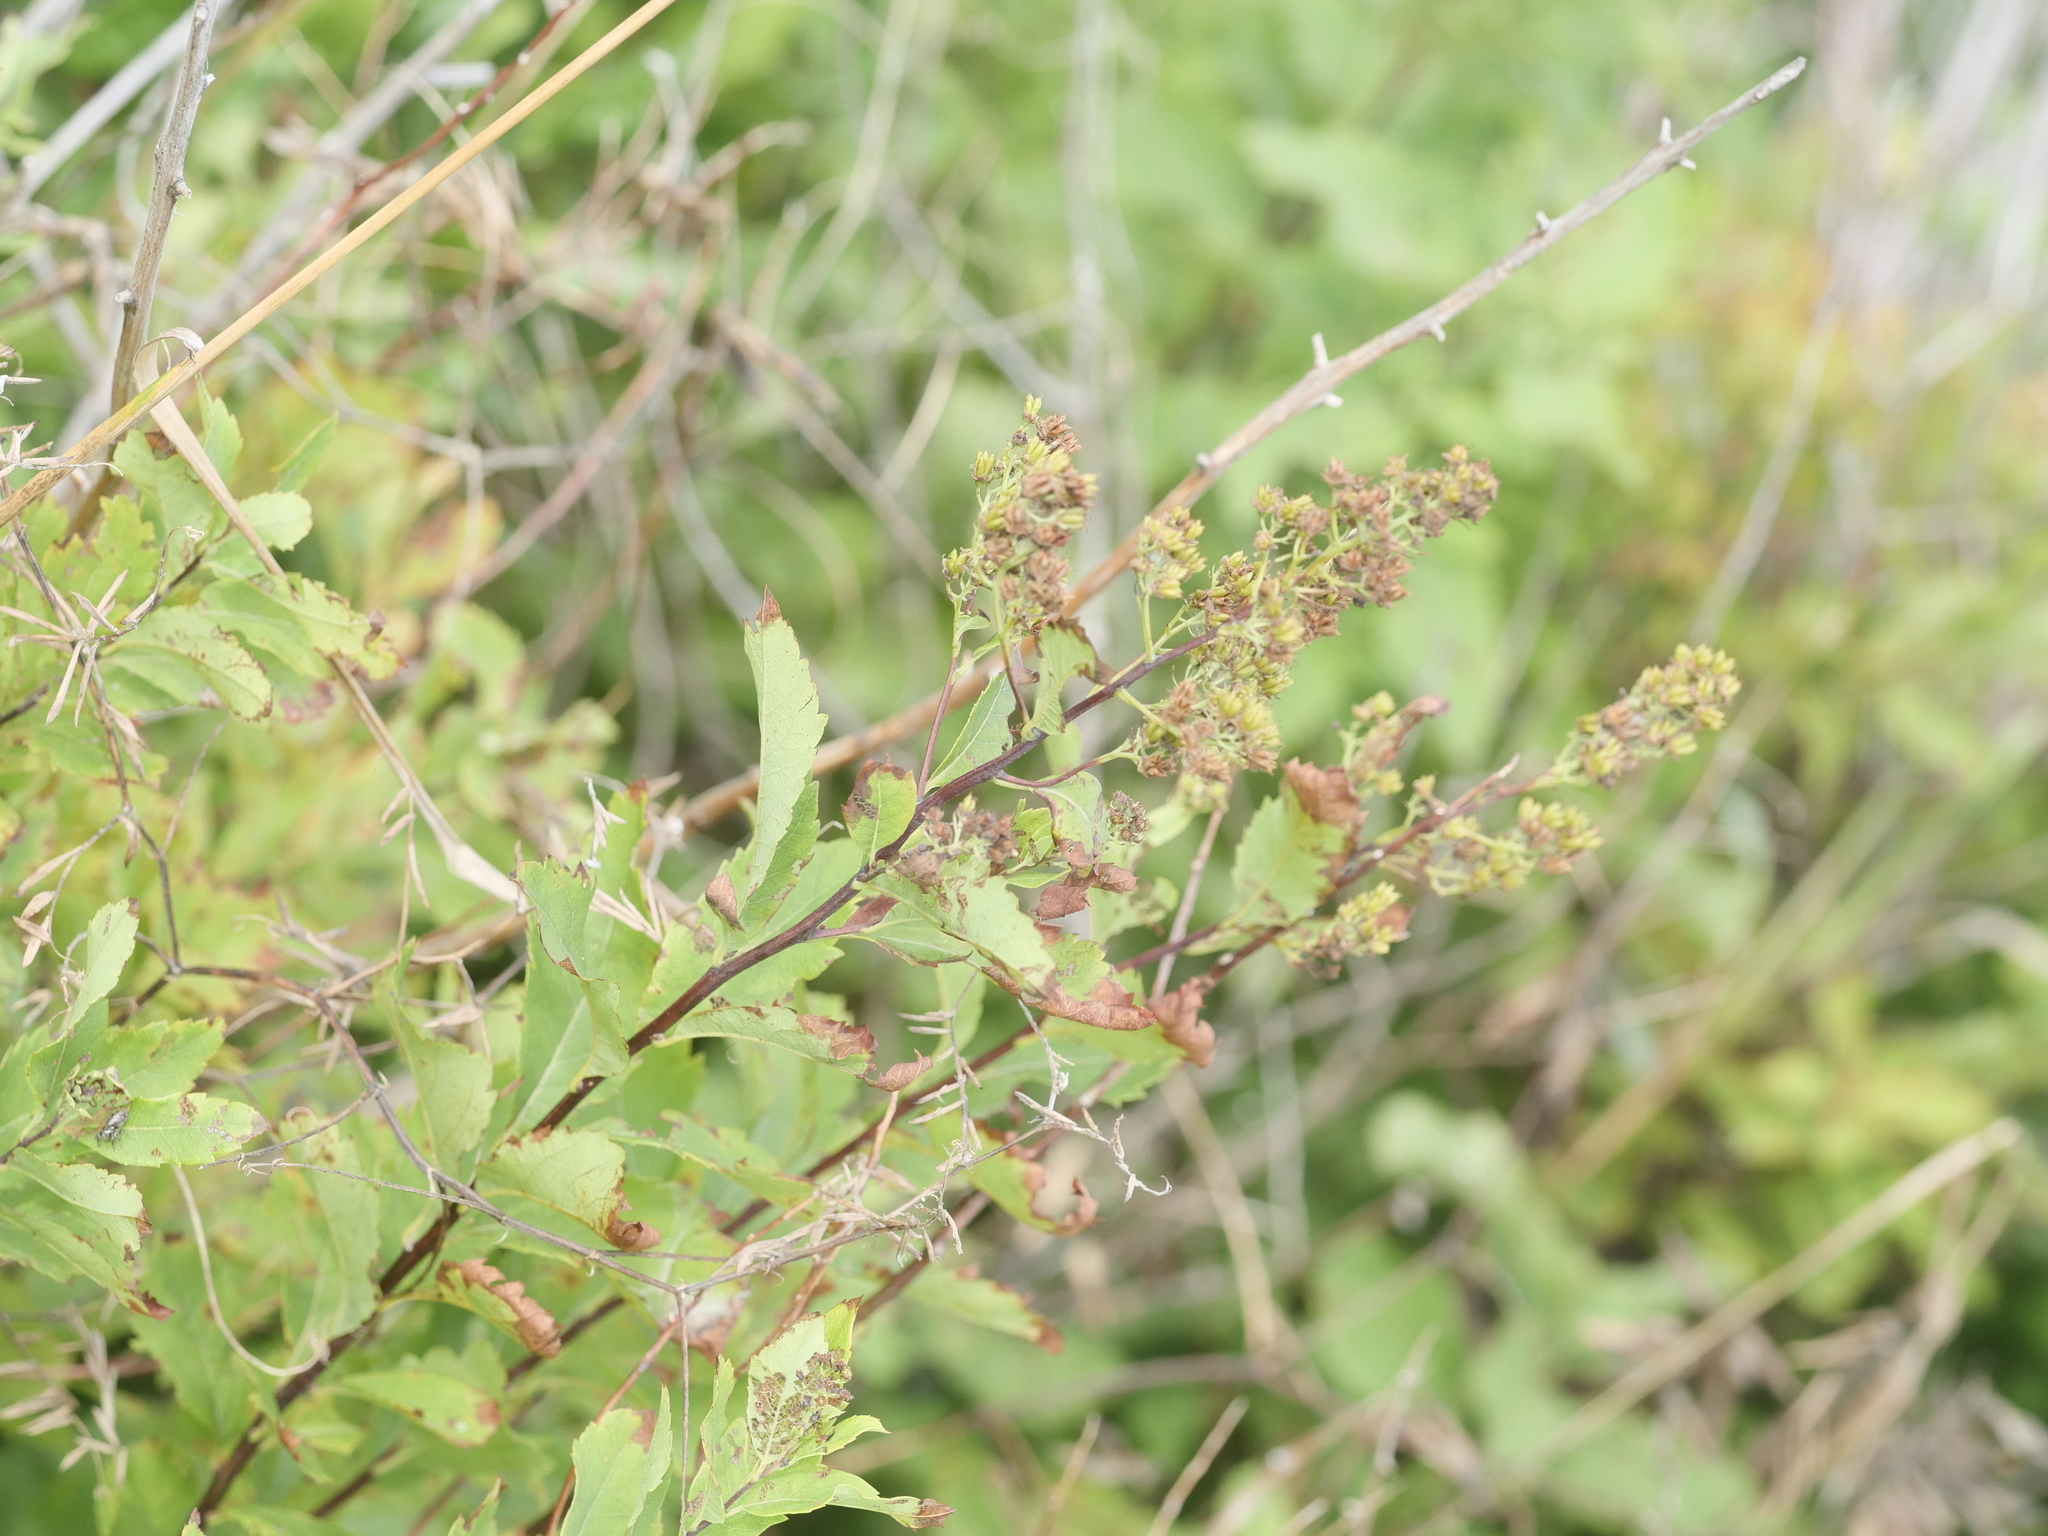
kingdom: Plantae
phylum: Tracheophyta
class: Magnoliopsida
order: Rosales
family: Rosaceae
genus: Spiraea
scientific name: Spiraea alba
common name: Pale bridewort
